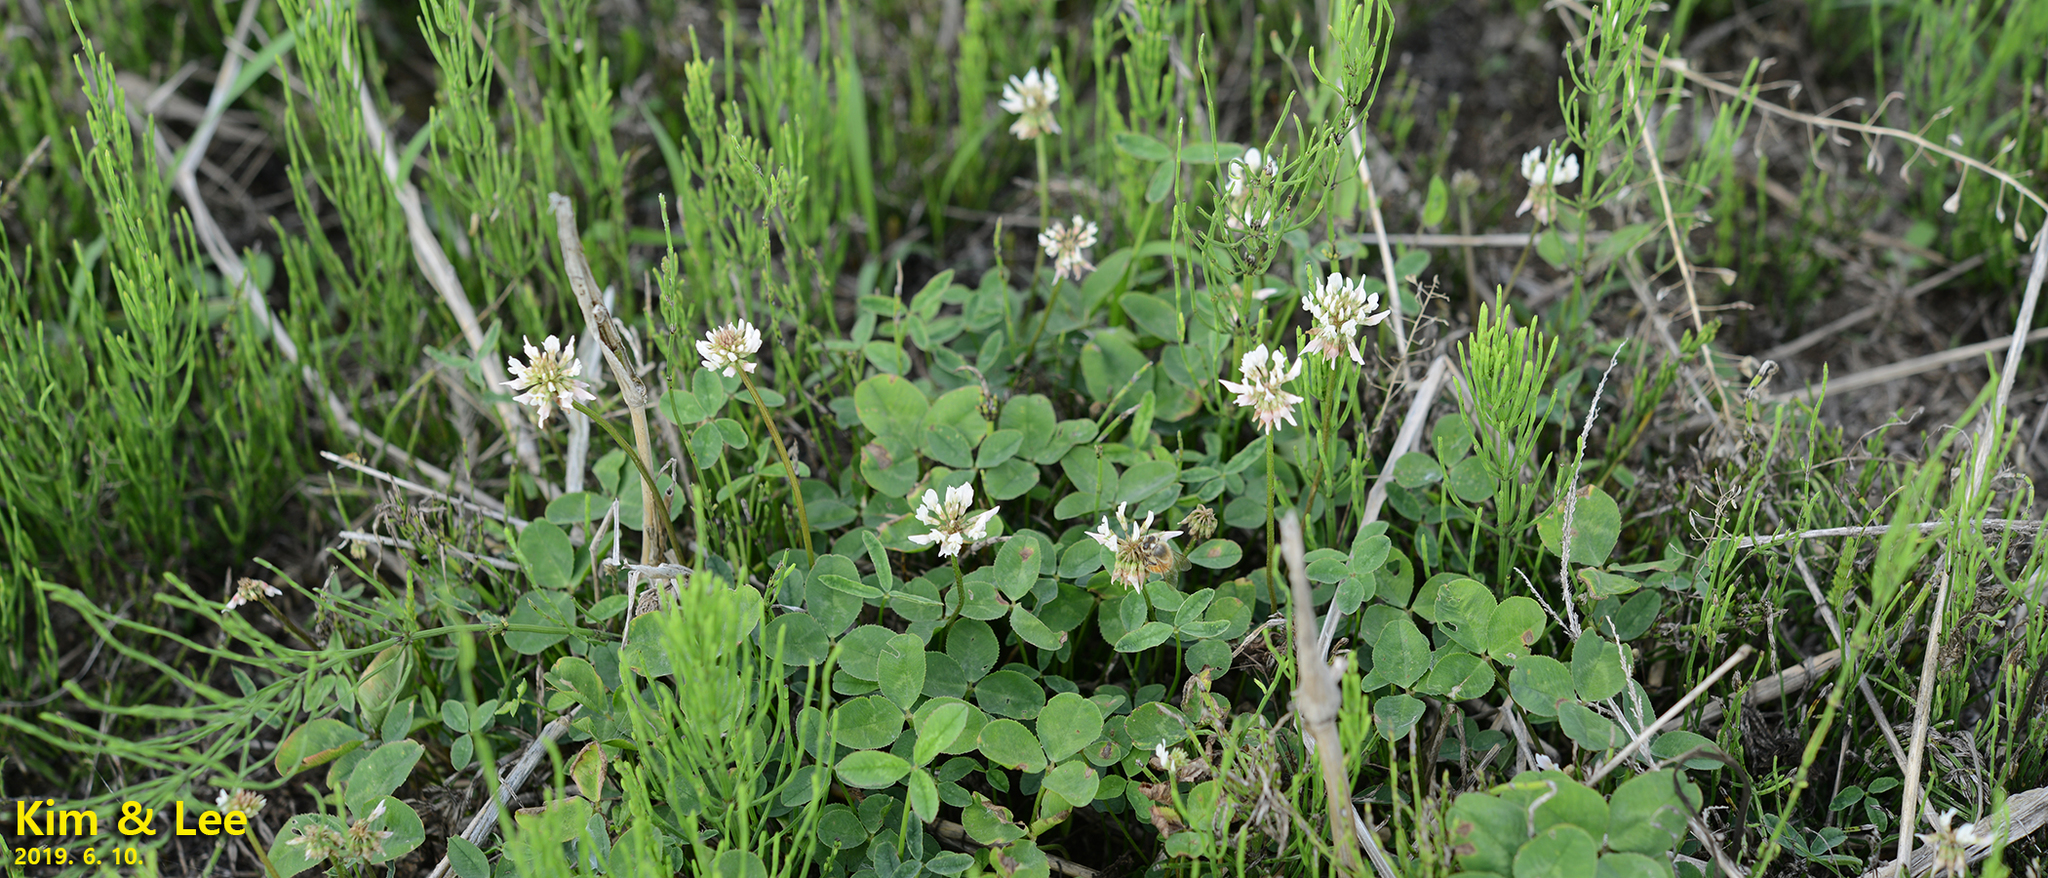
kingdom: Plantae
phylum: Tracheophyta
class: Magnoliopsida
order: Fabales
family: Fabaceae
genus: Trifolium
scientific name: Trifolium repens
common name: White clover
